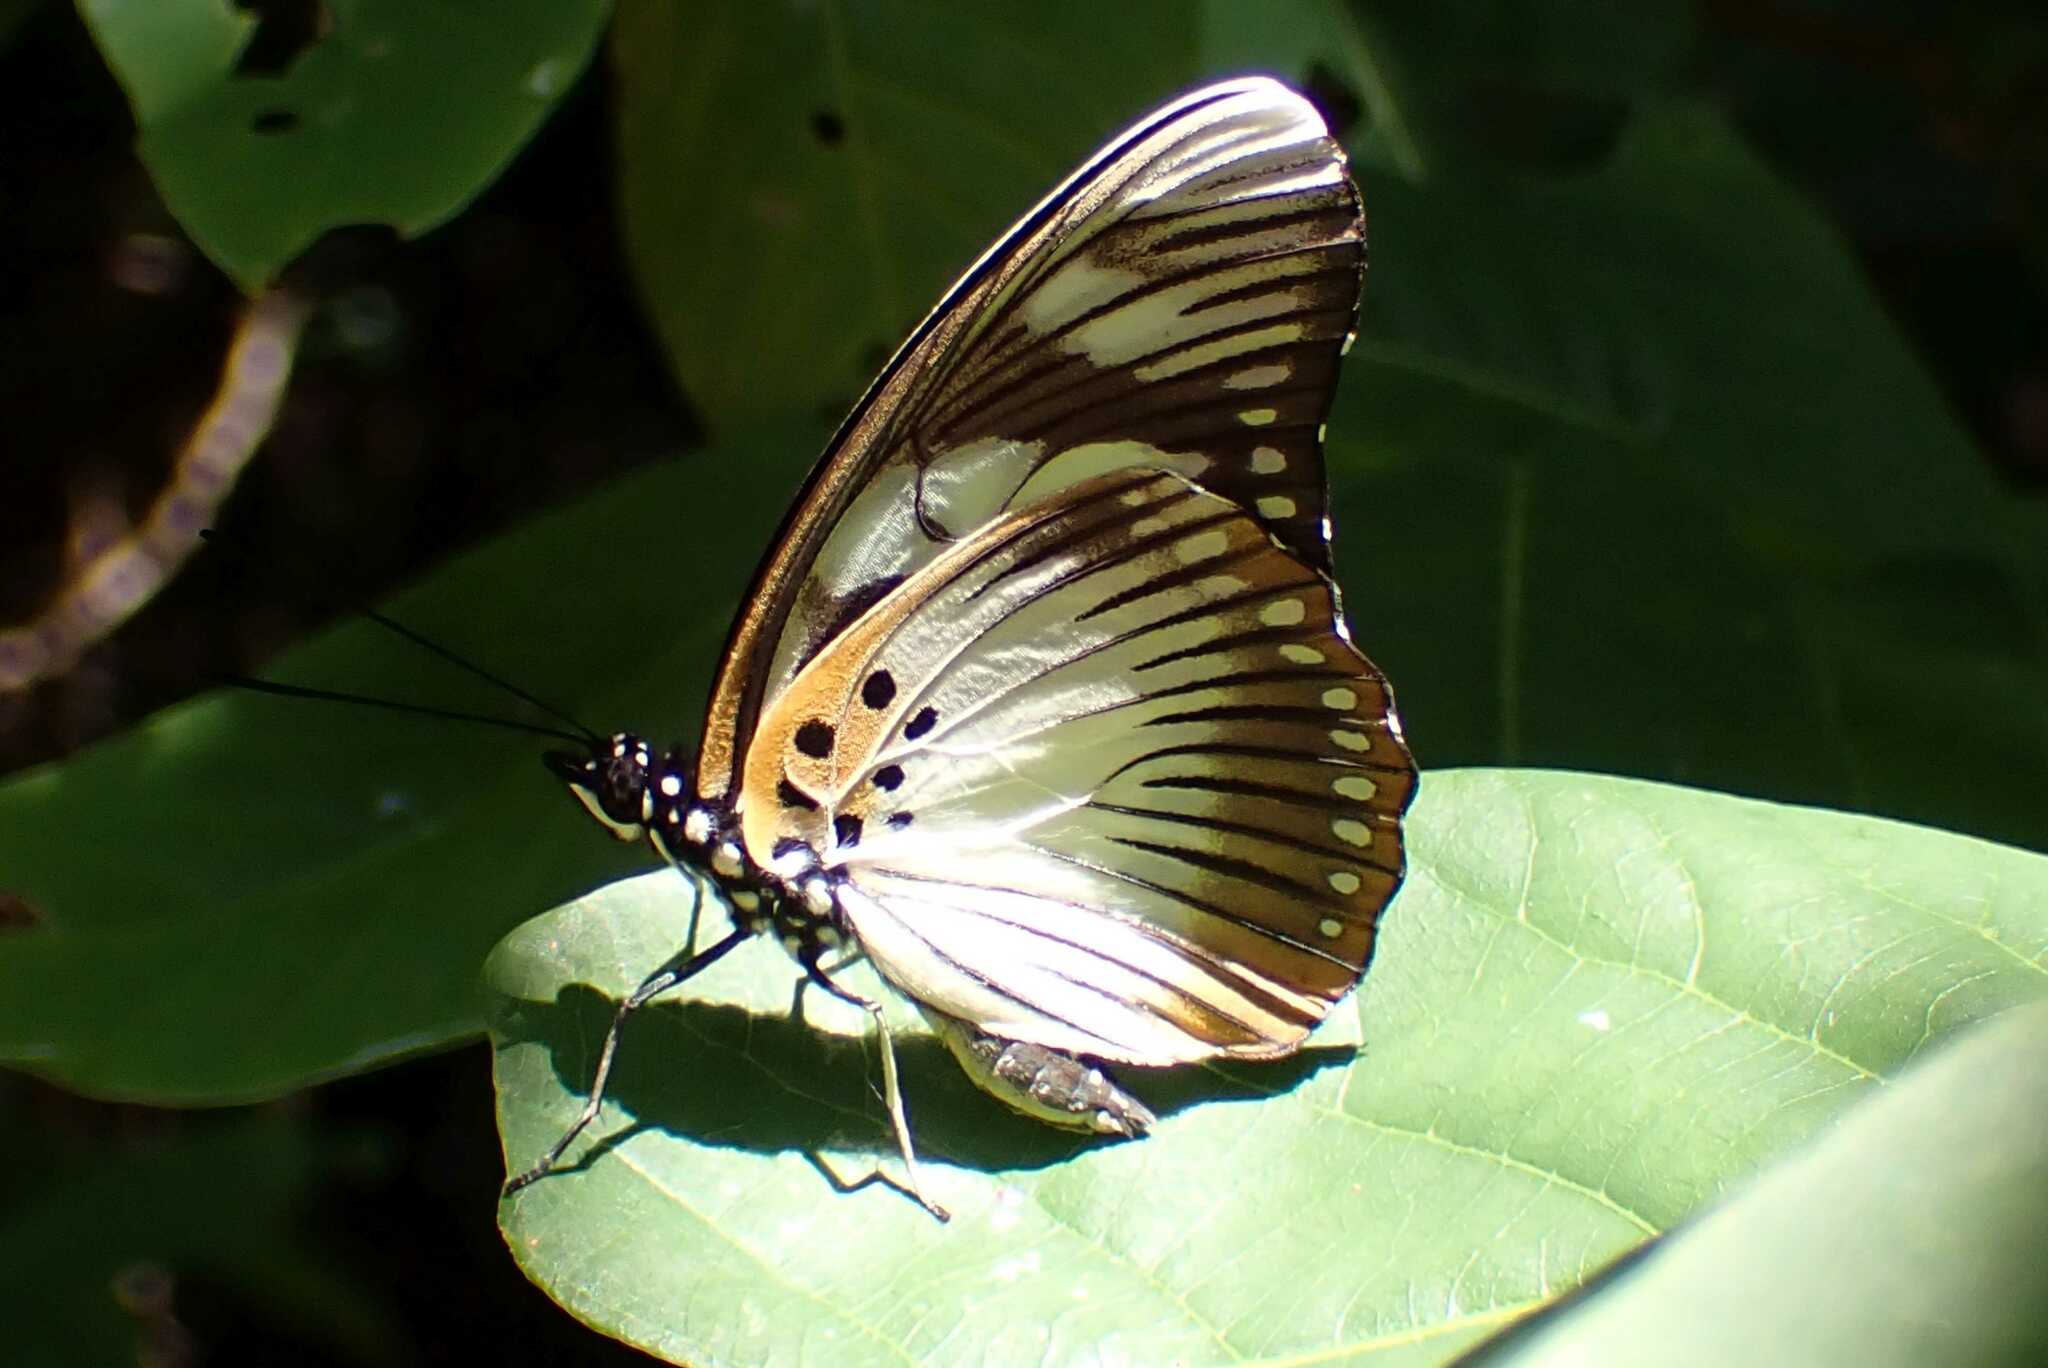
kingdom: Animalia
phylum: Arthropoda
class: Insecta
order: Lepidoptera
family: Nymphalidae
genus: Chloropoea
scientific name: Chloropoea lucretia
